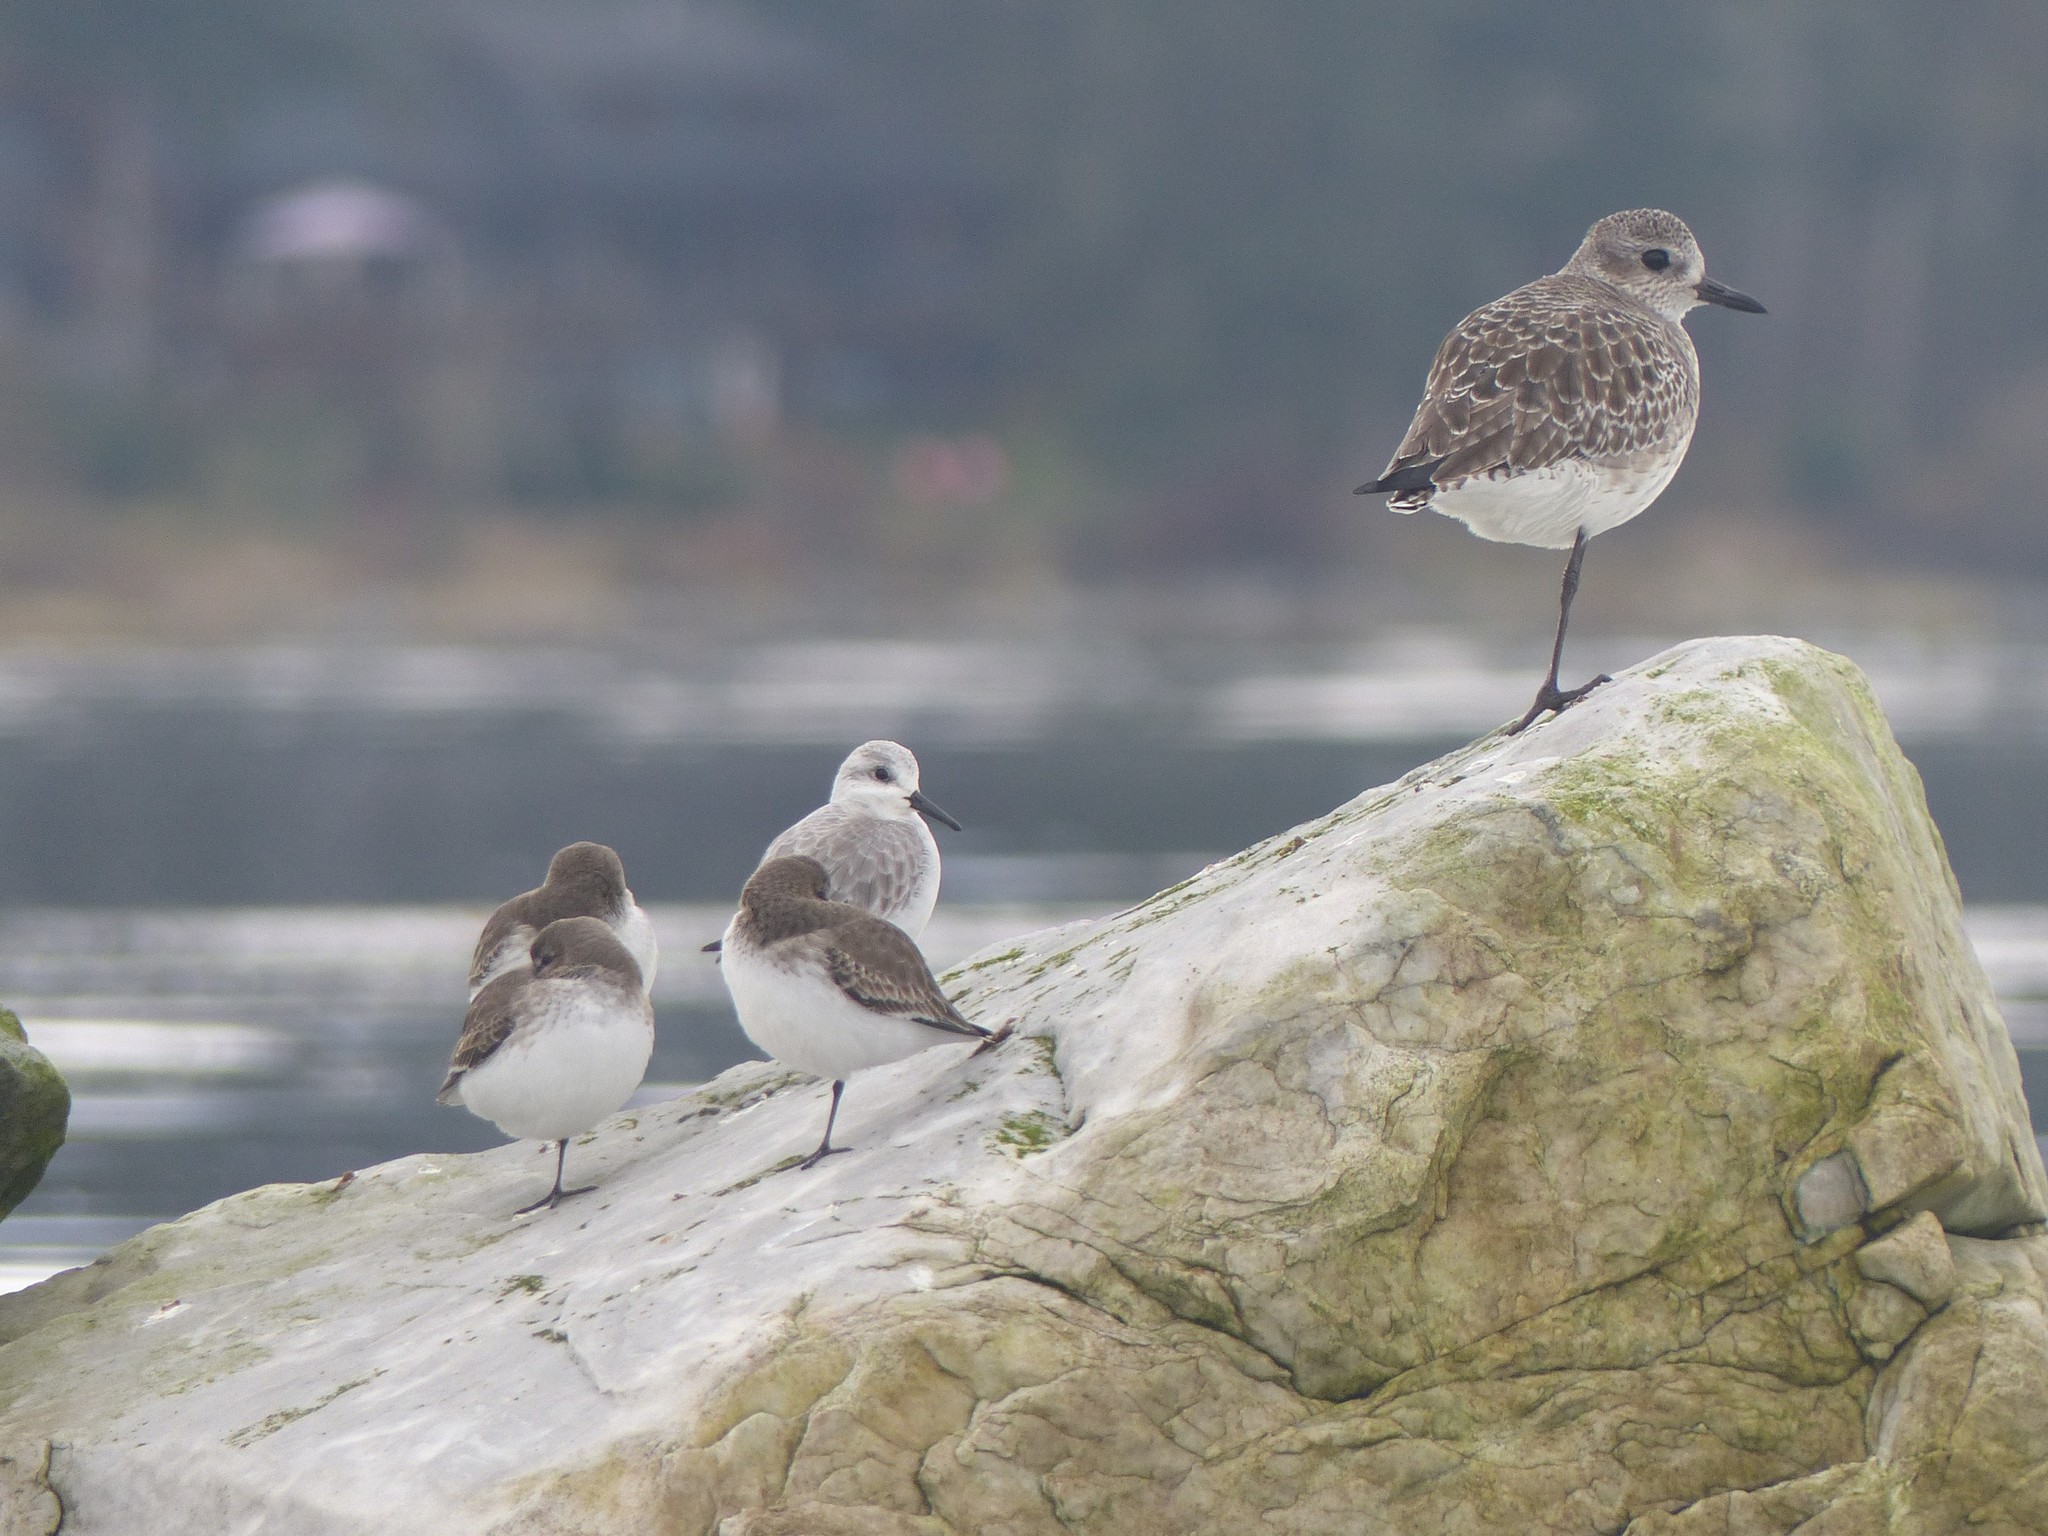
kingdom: Animalia
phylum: Chordata
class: Aves
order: Charadriiformes
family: Scolopacidae
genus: Calidris
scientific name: Calidris alba
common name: Sanderling
